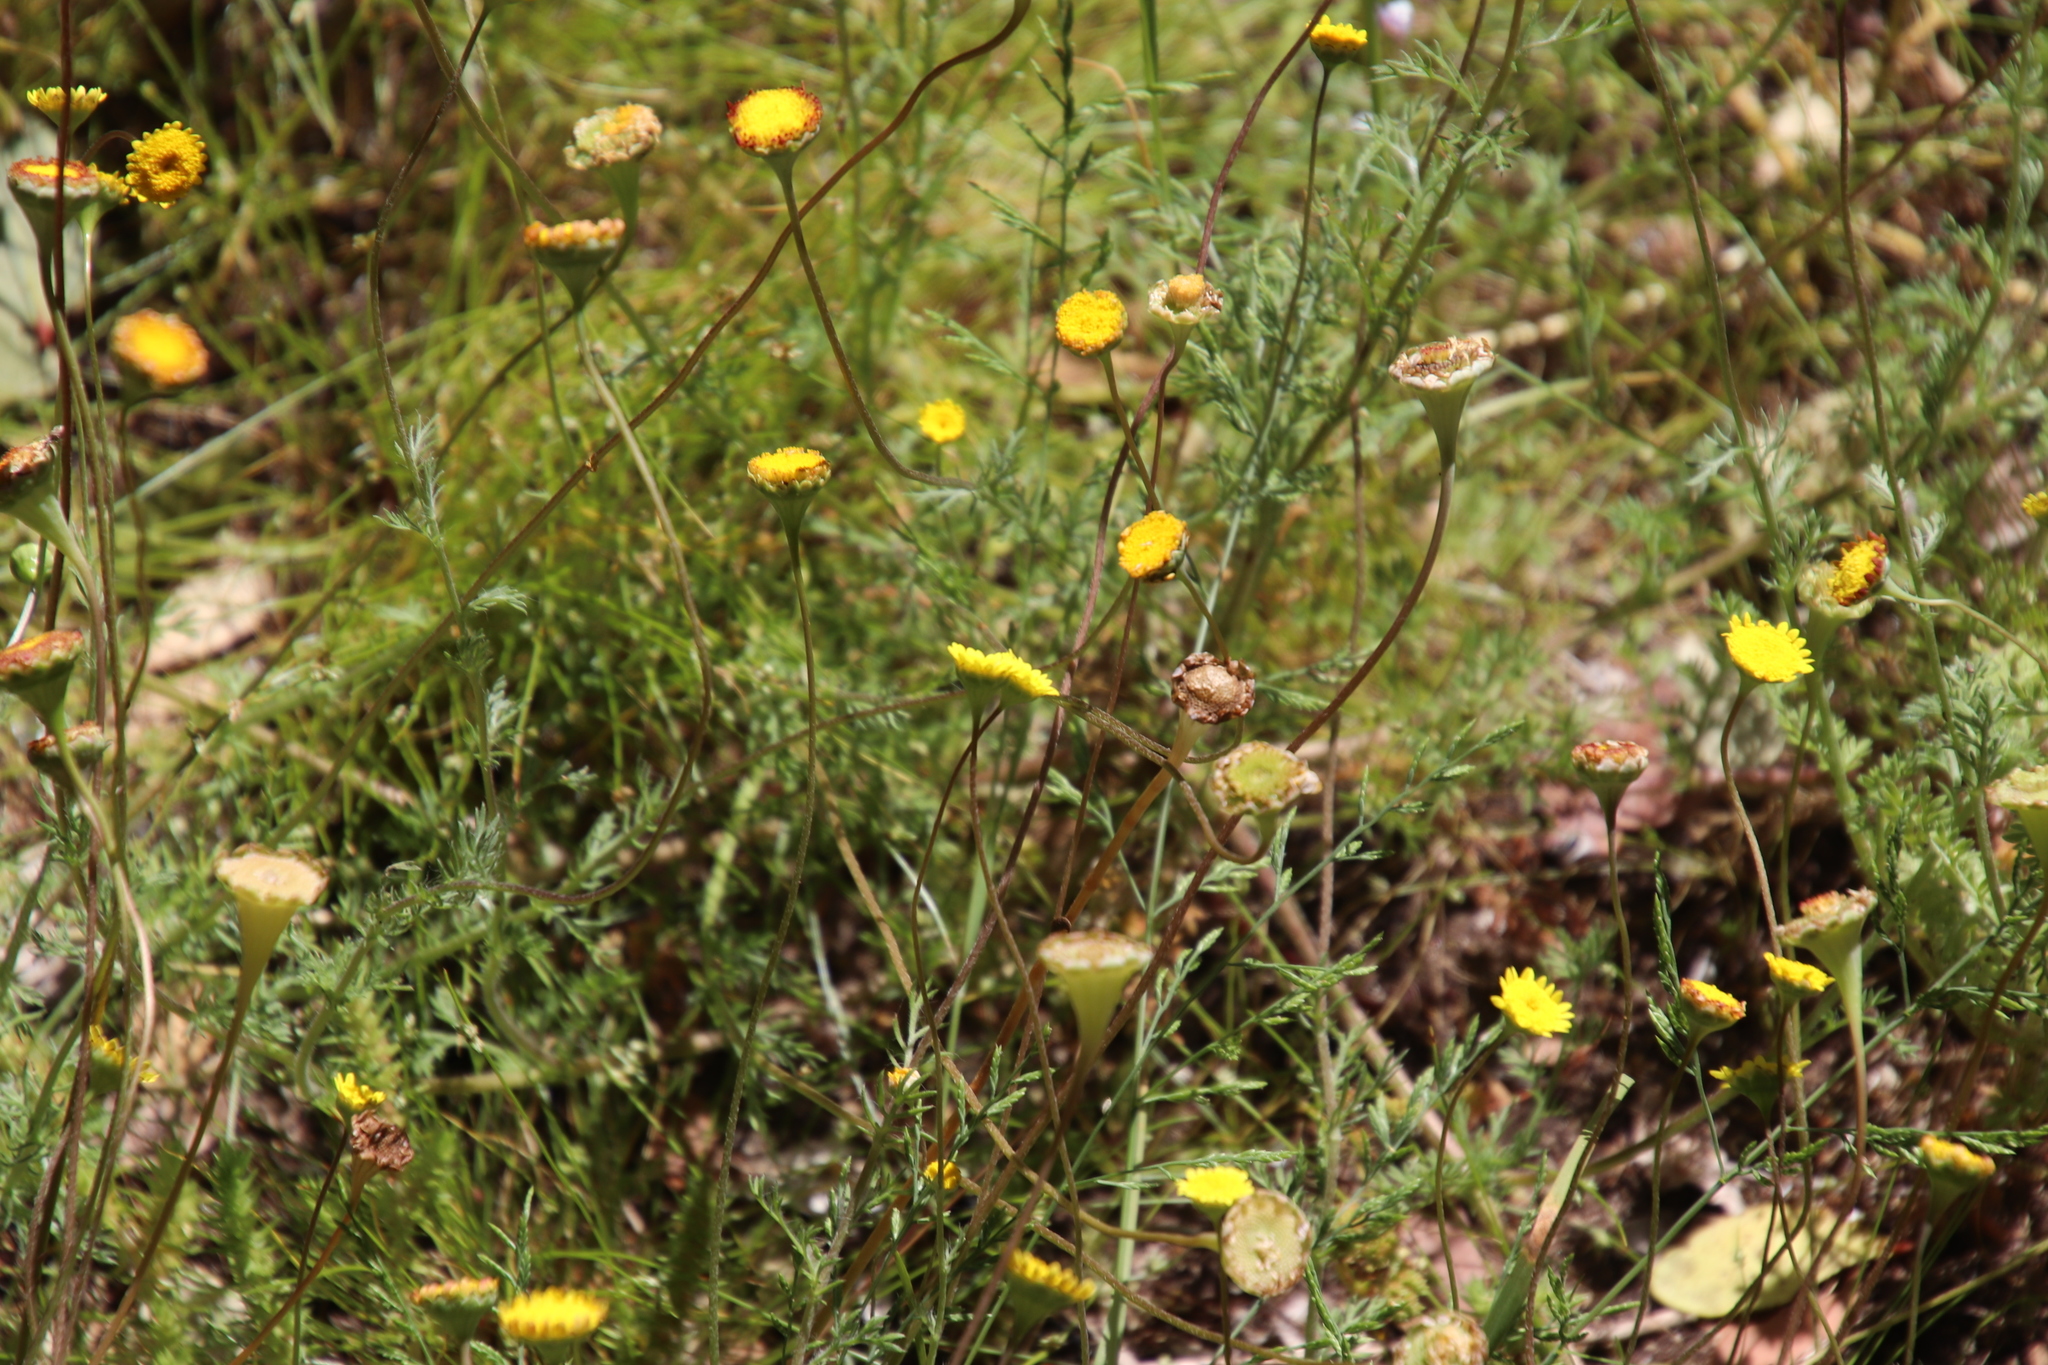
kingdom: Plantae
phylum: Tracheophyta
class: Magnoliopsida
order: Asterales
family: Asteraceae
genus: Cotula
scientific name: Cotula pruinosa
